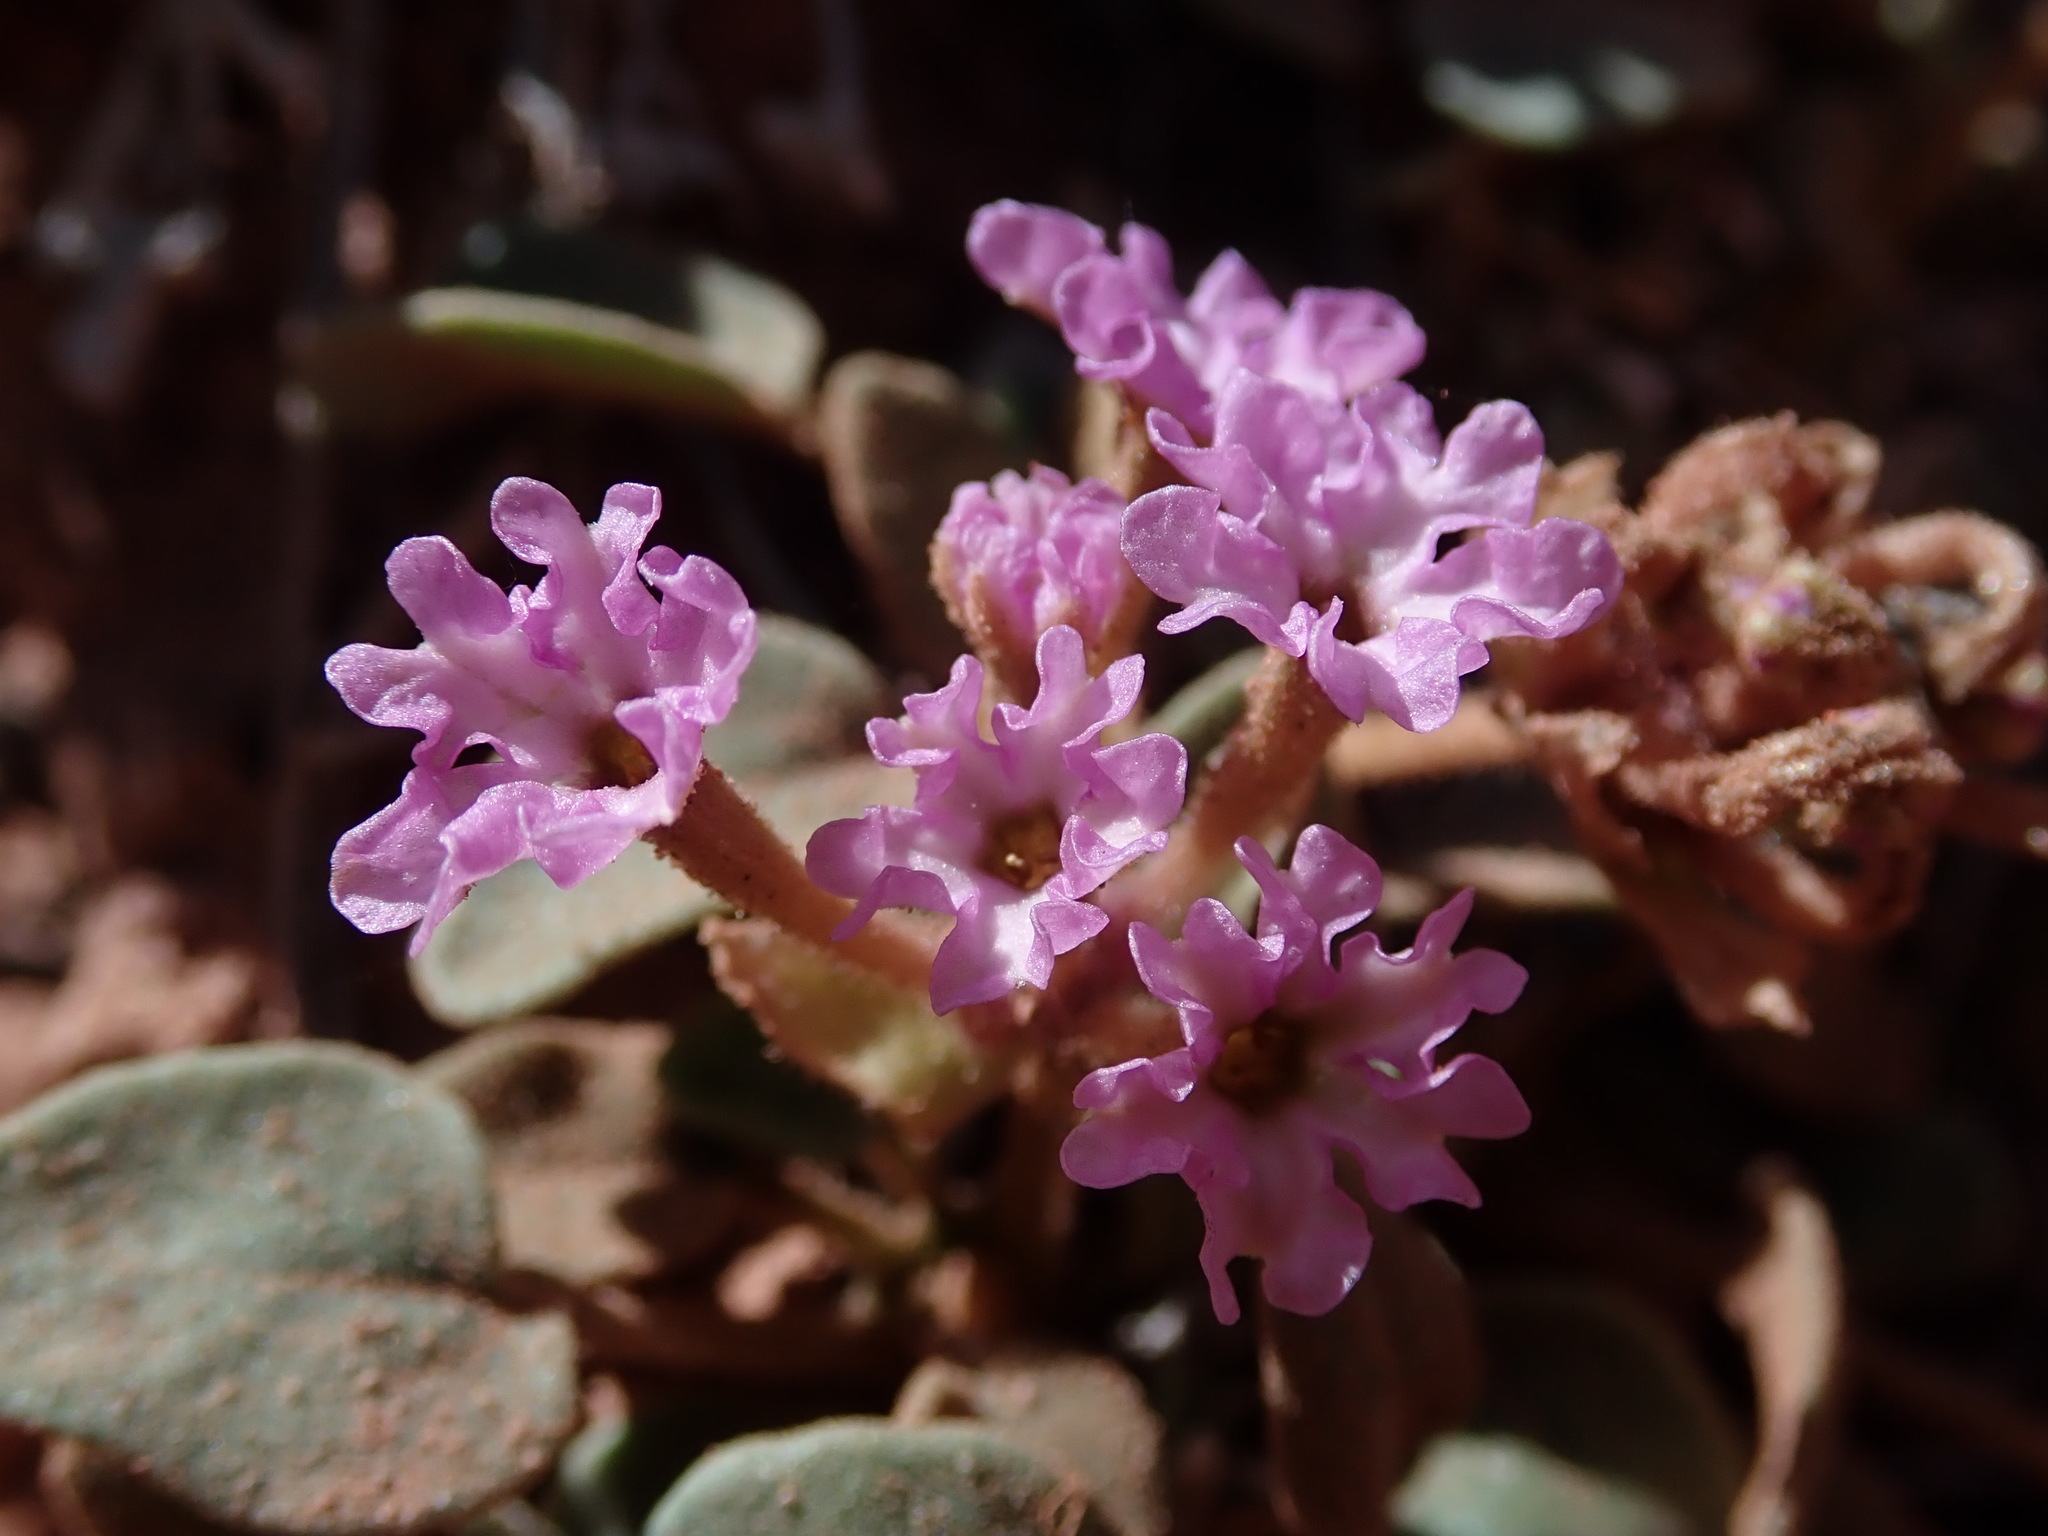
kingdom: Plantae
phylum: Tracheophyta
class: Magnoliopsida
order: Caryophyllales
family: Nyctaginaceae
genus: Abronia
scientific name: Abronia nana
